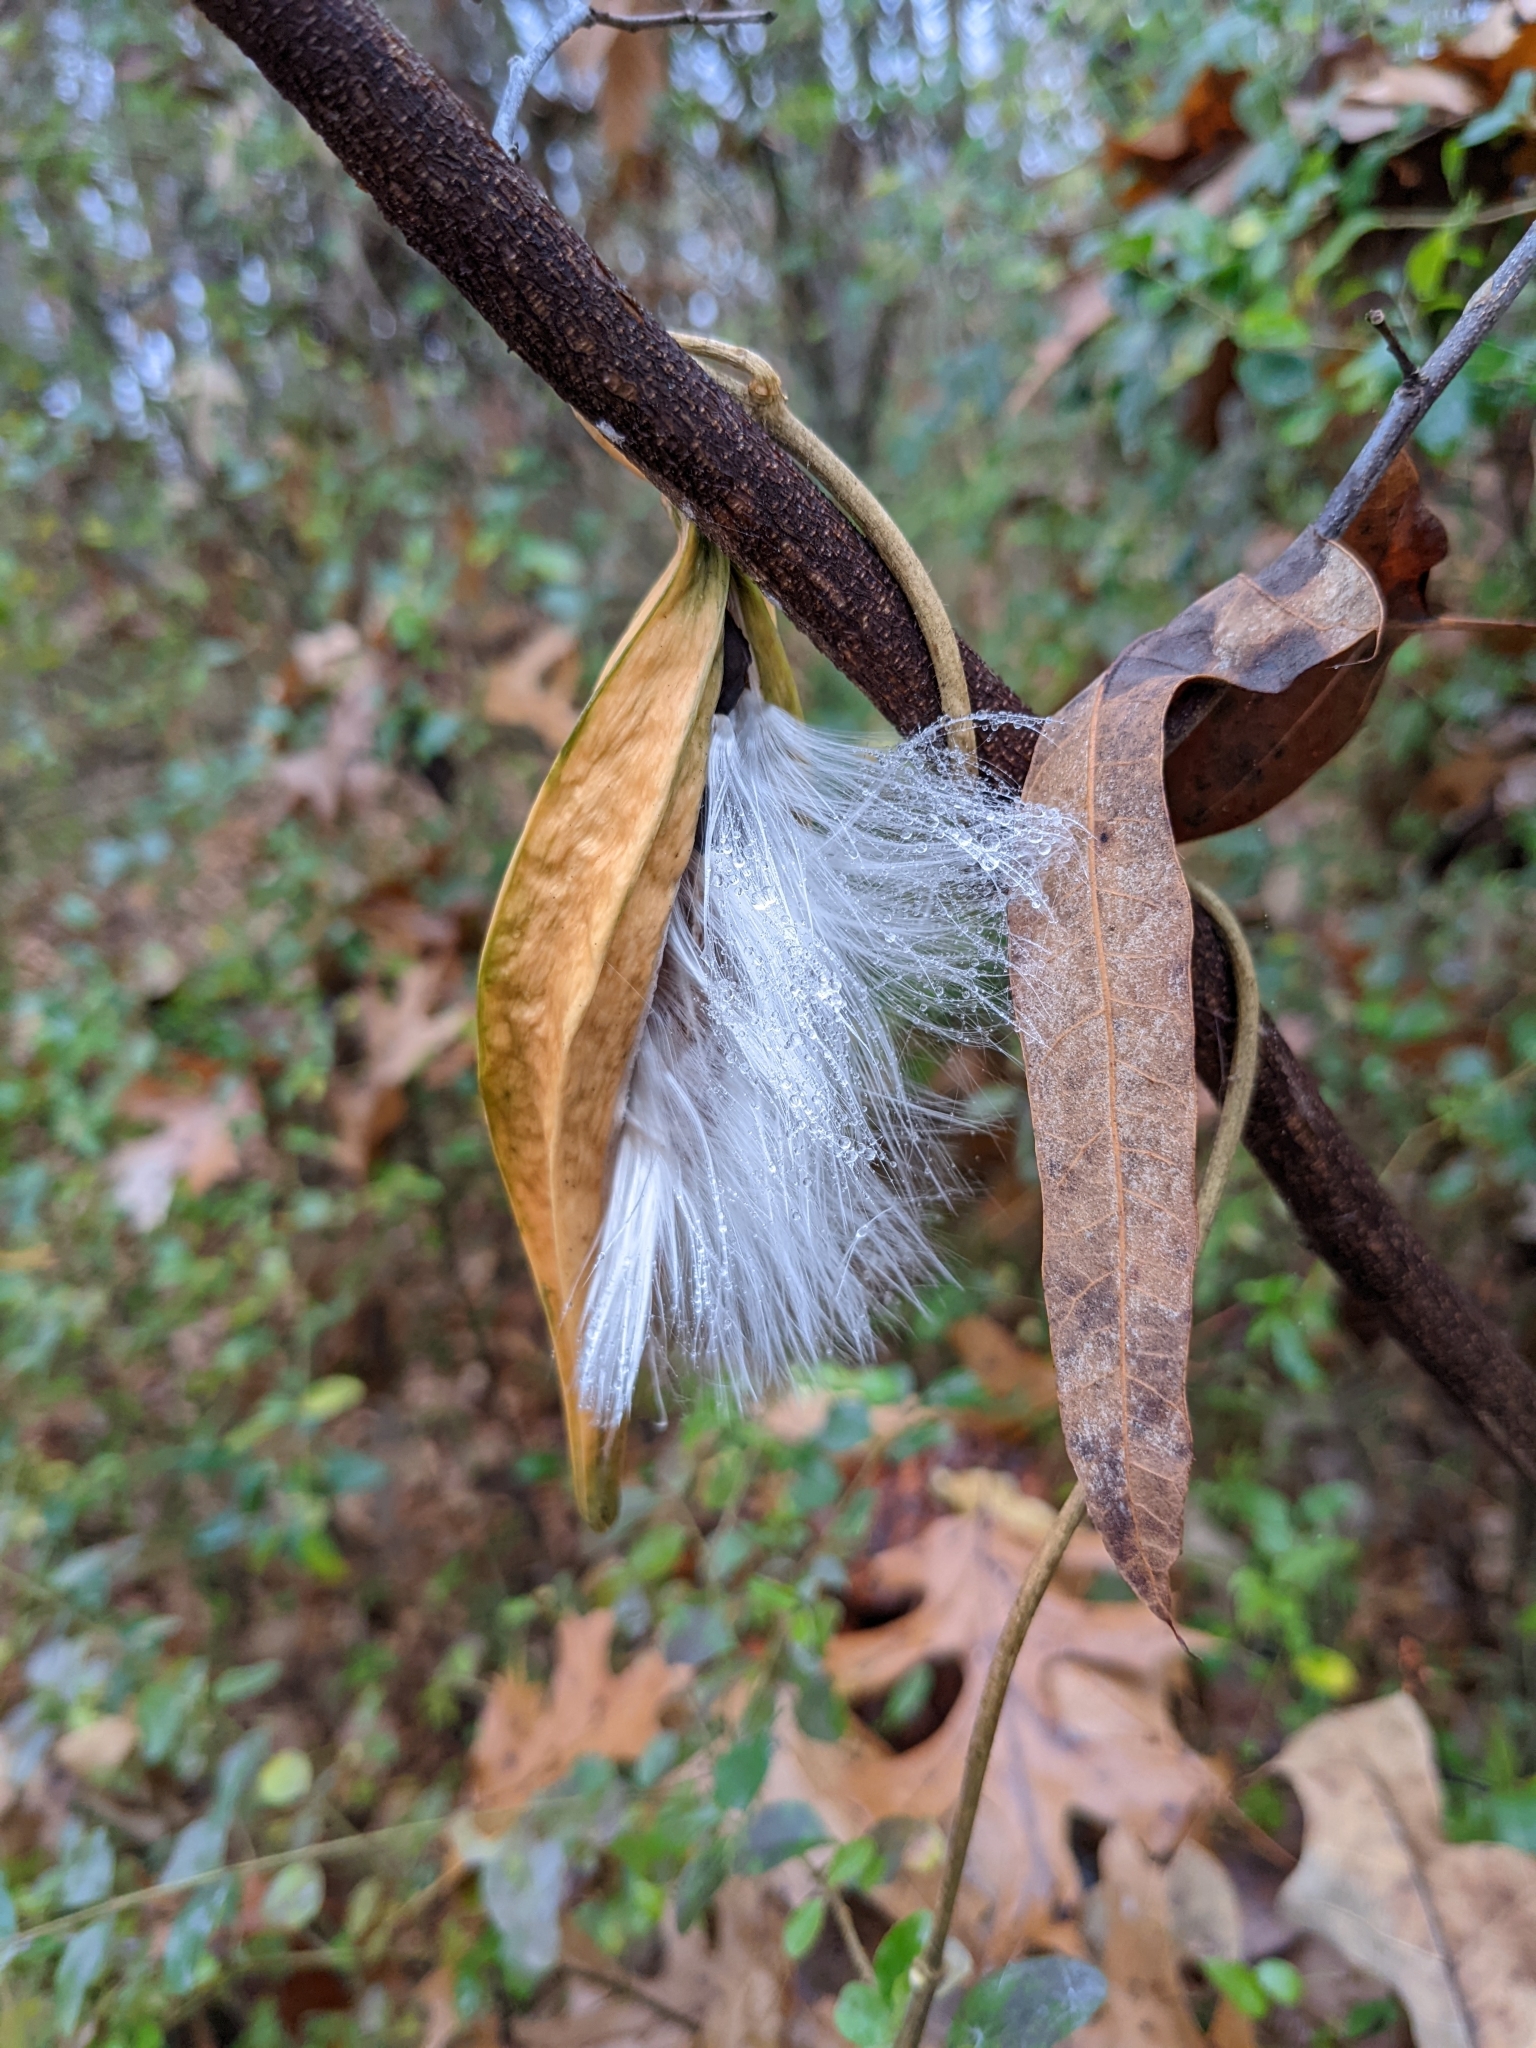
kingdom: Plantae
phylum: Tracheophyta
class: Magnoliopsida
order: Gentianales
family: Apocynaceae
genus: Gonolobus
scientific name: Gonolobus suberosus
